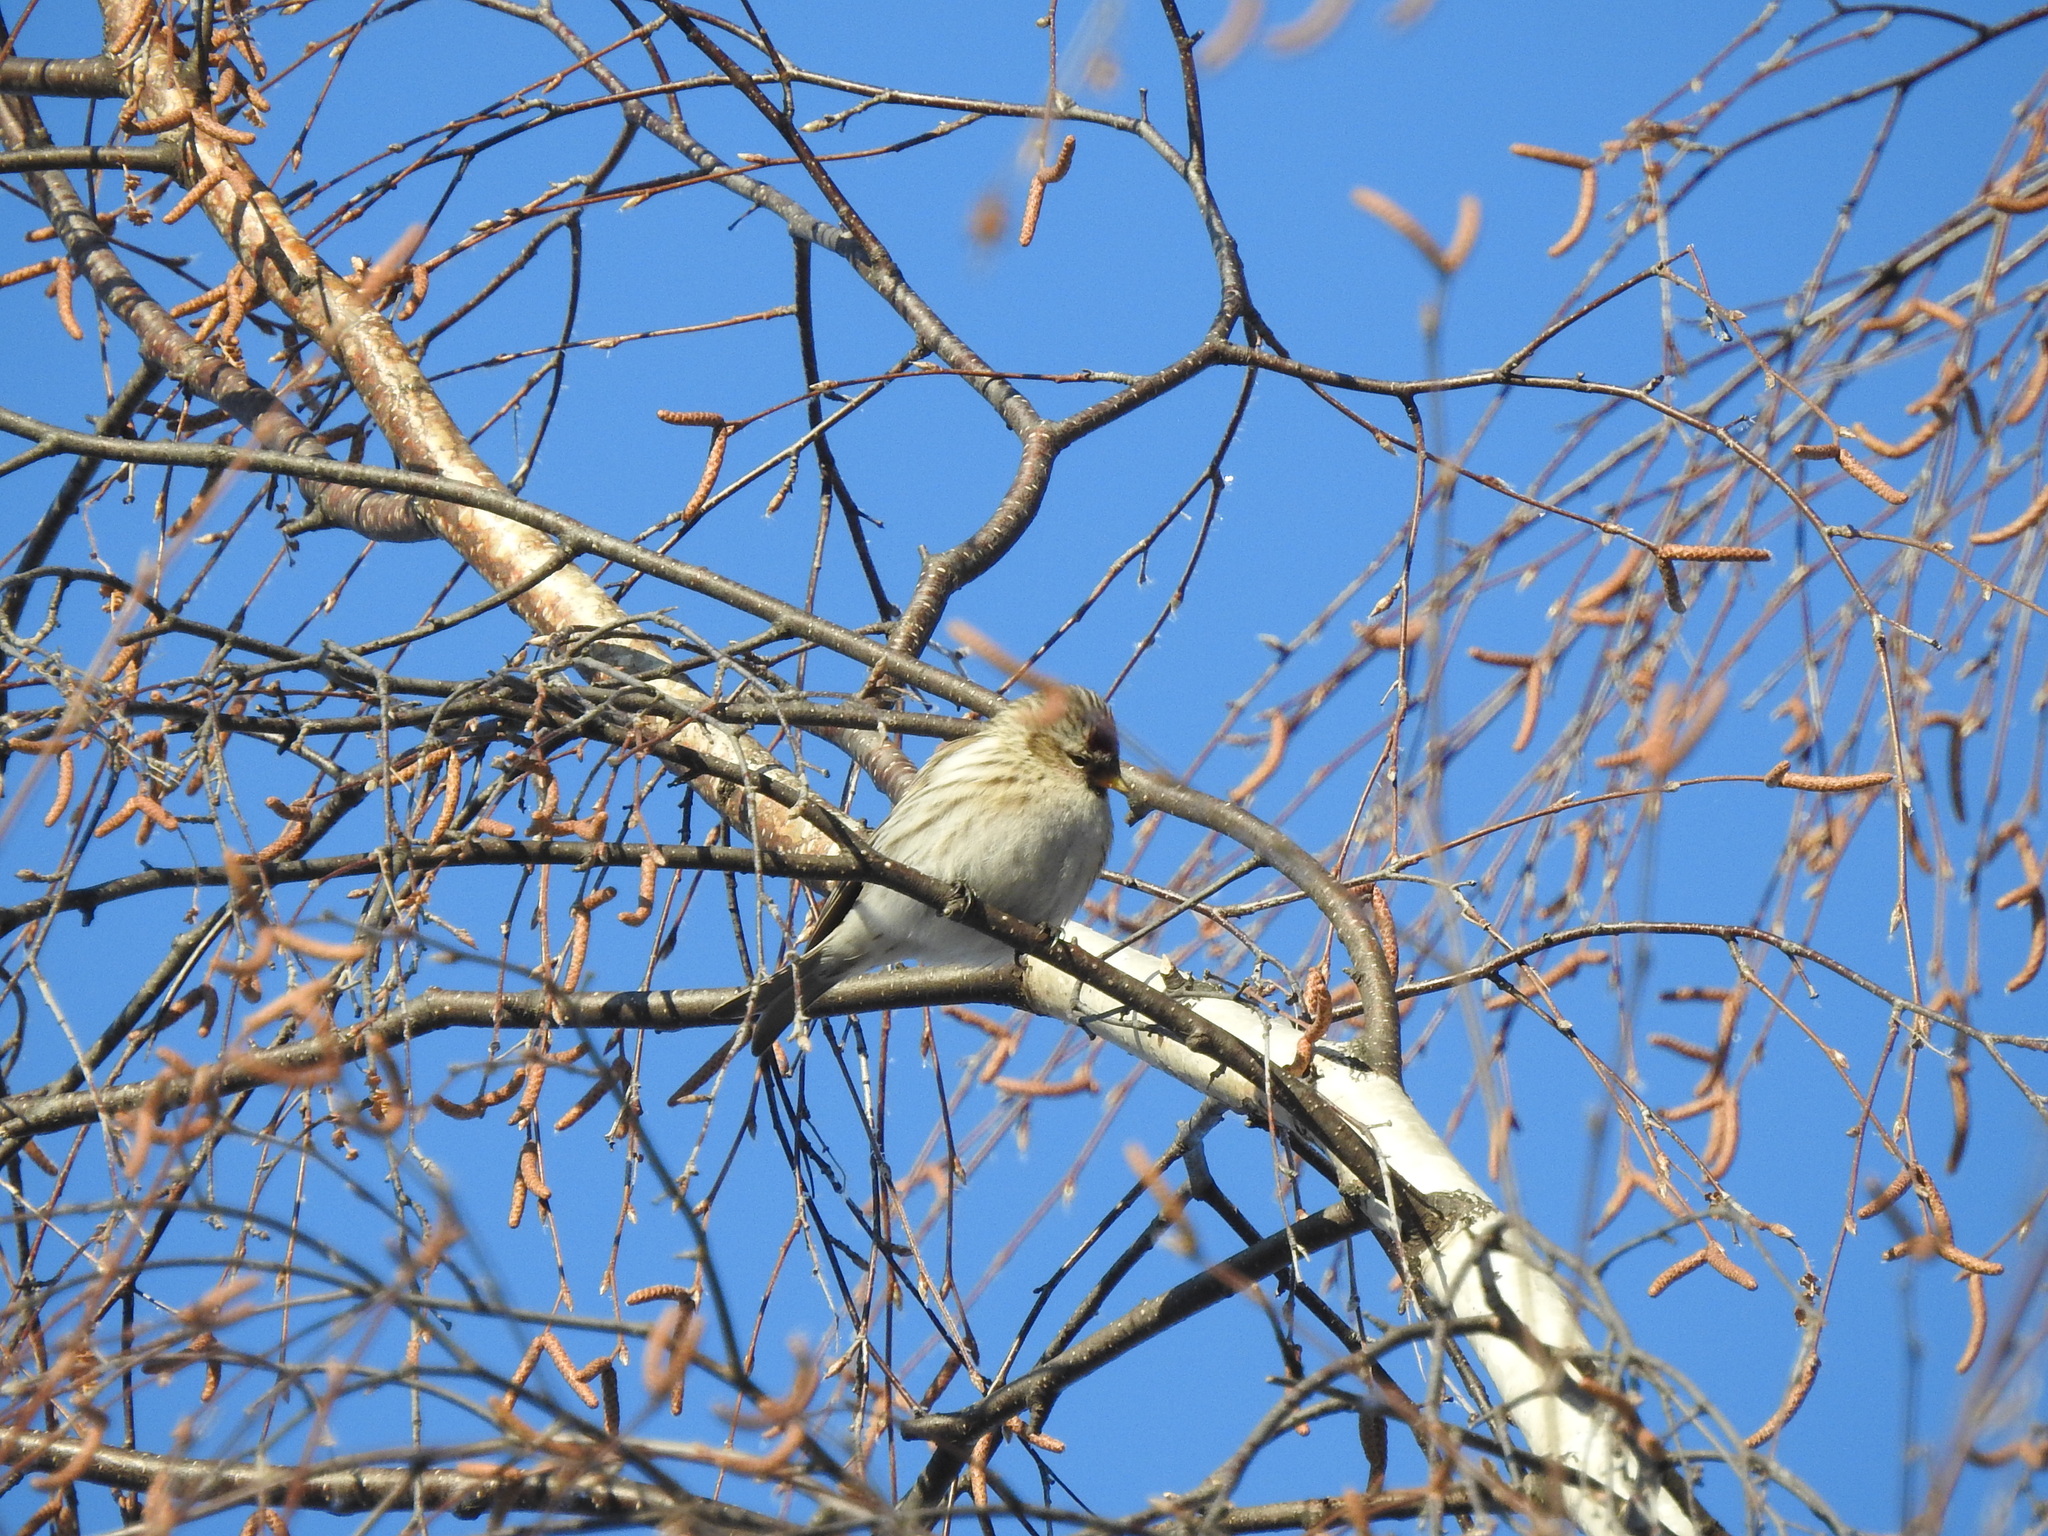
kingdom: Animalia
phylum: Chordata
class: Aves
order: Passeriformes
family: Fringillidae
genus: Acanthis
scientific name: Acanthis hornemanni
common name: Arctic redpoll
